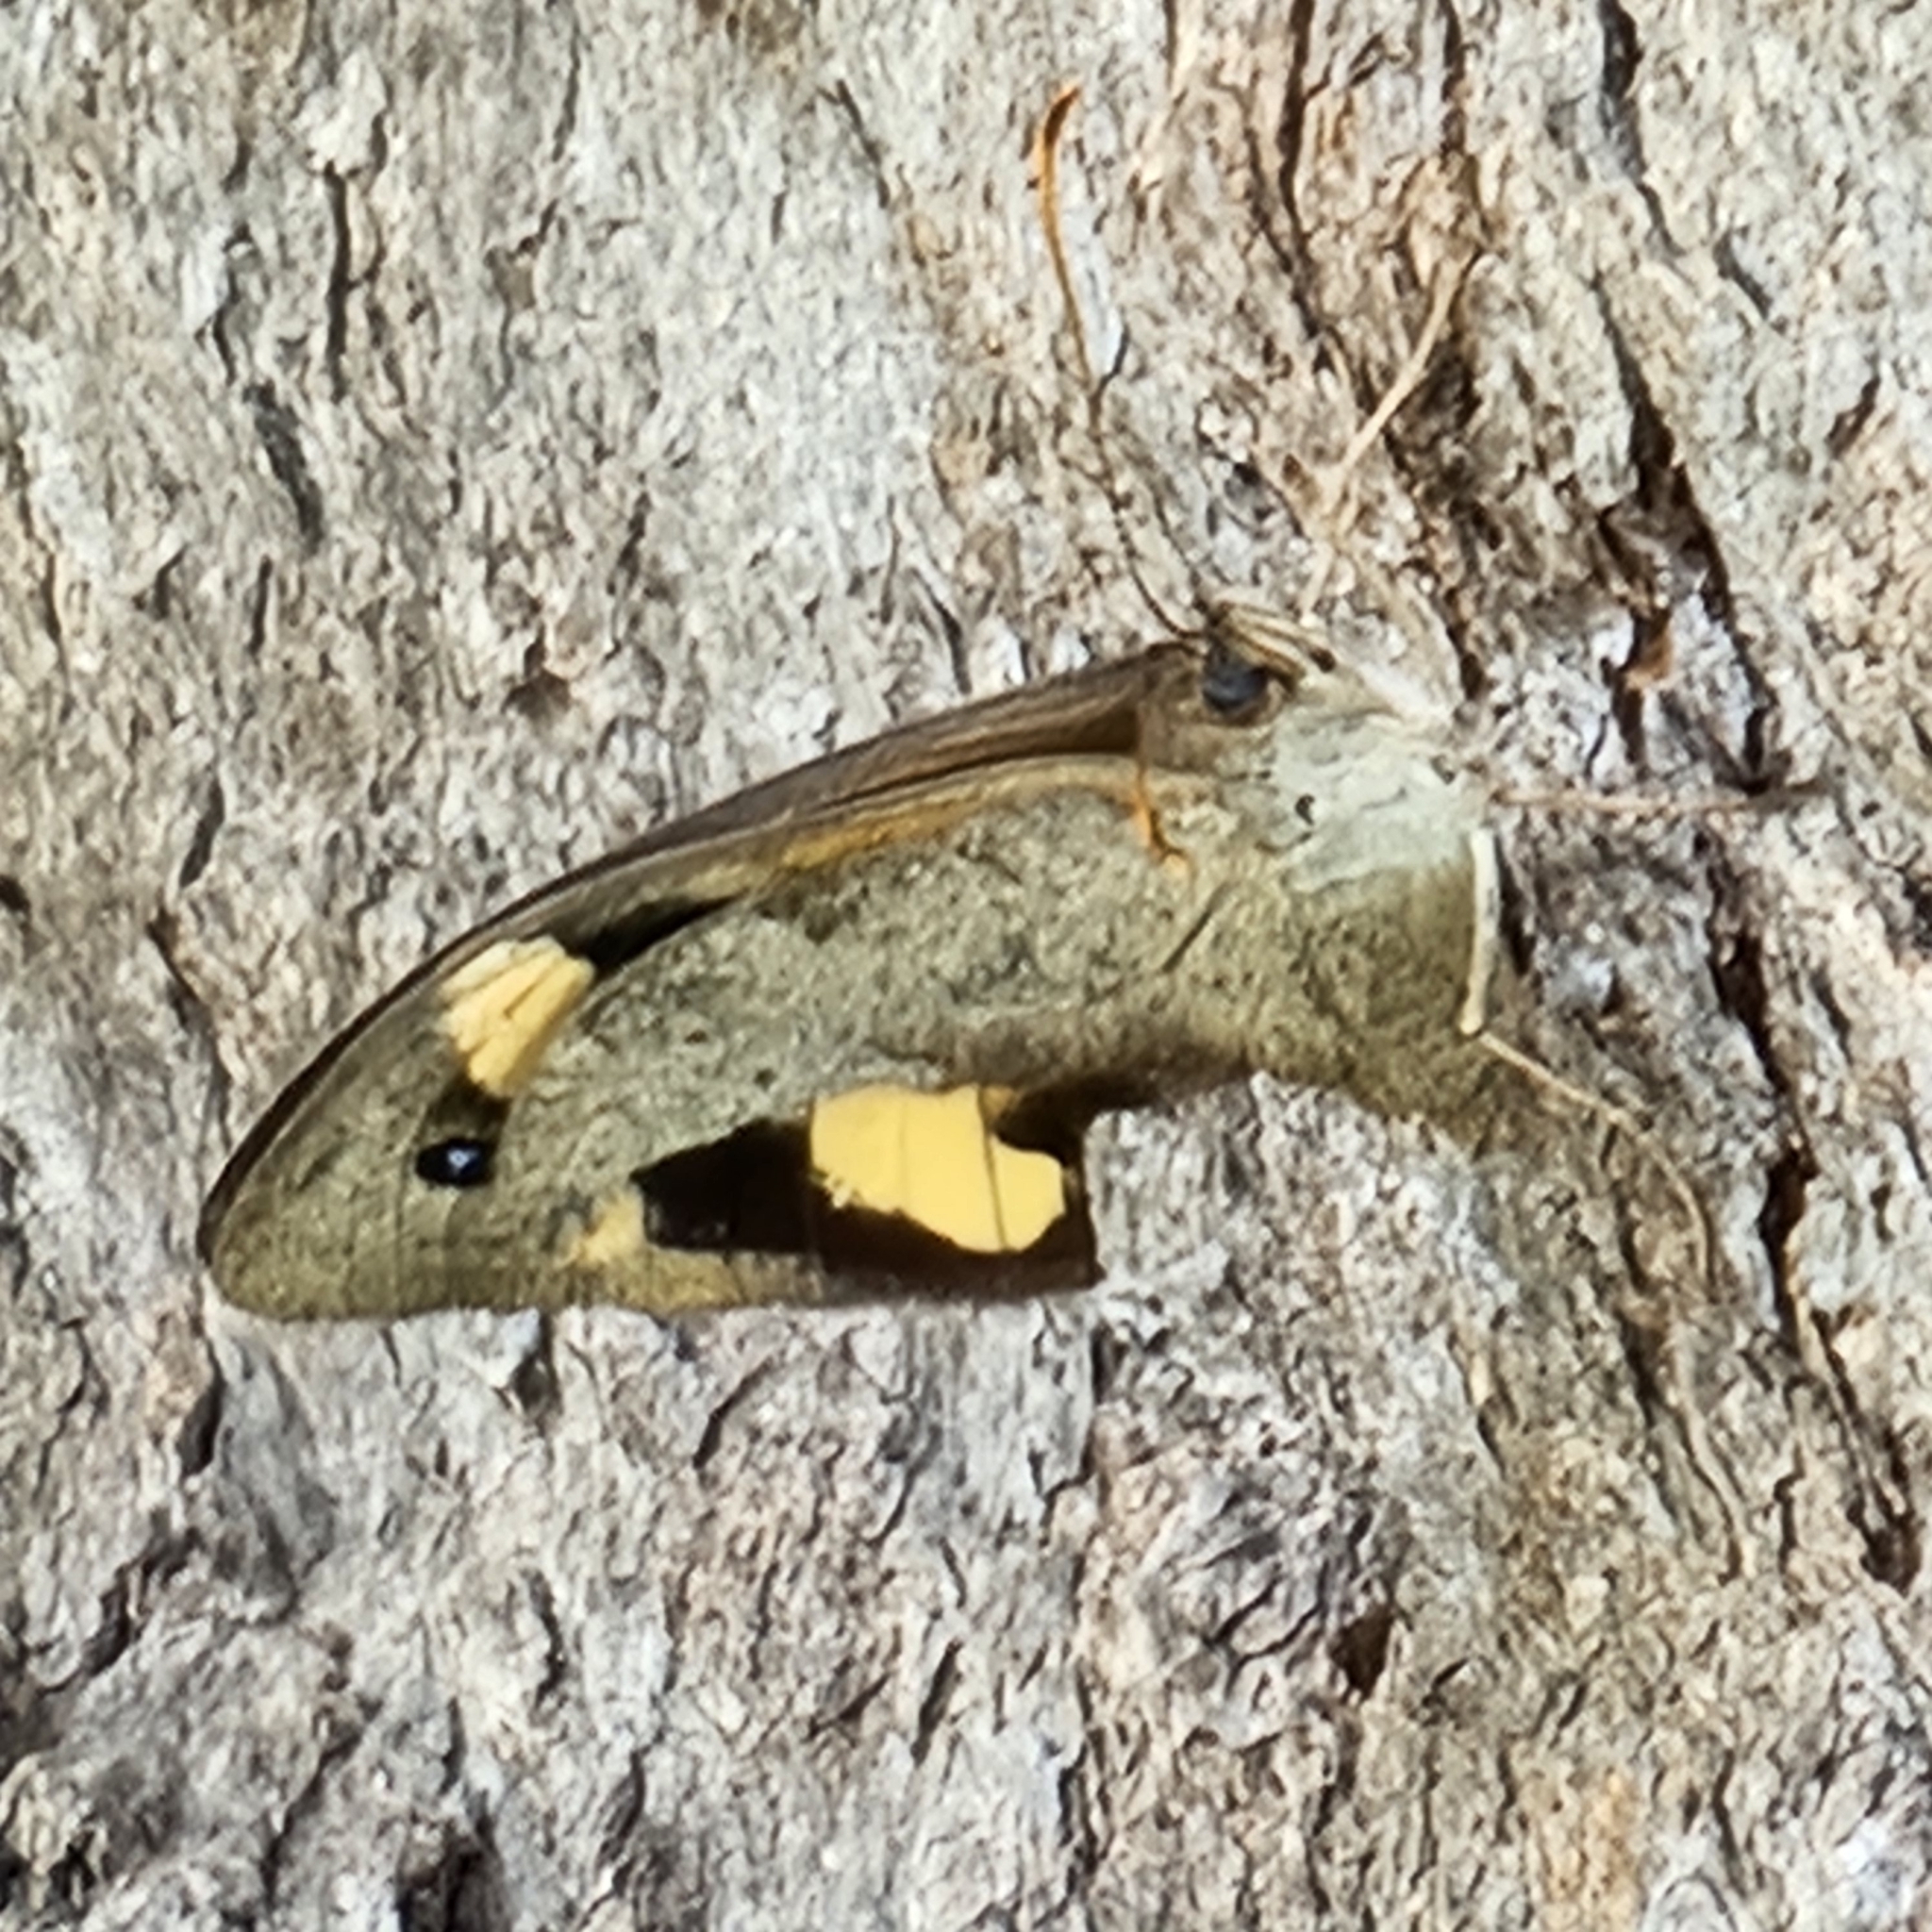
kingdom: Animalia
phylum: Arthropoda
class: Insecta
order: Lepidoptera
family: Nymphalidae
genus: Heteronympha
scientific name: Heteronympha merope
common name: Common brown
